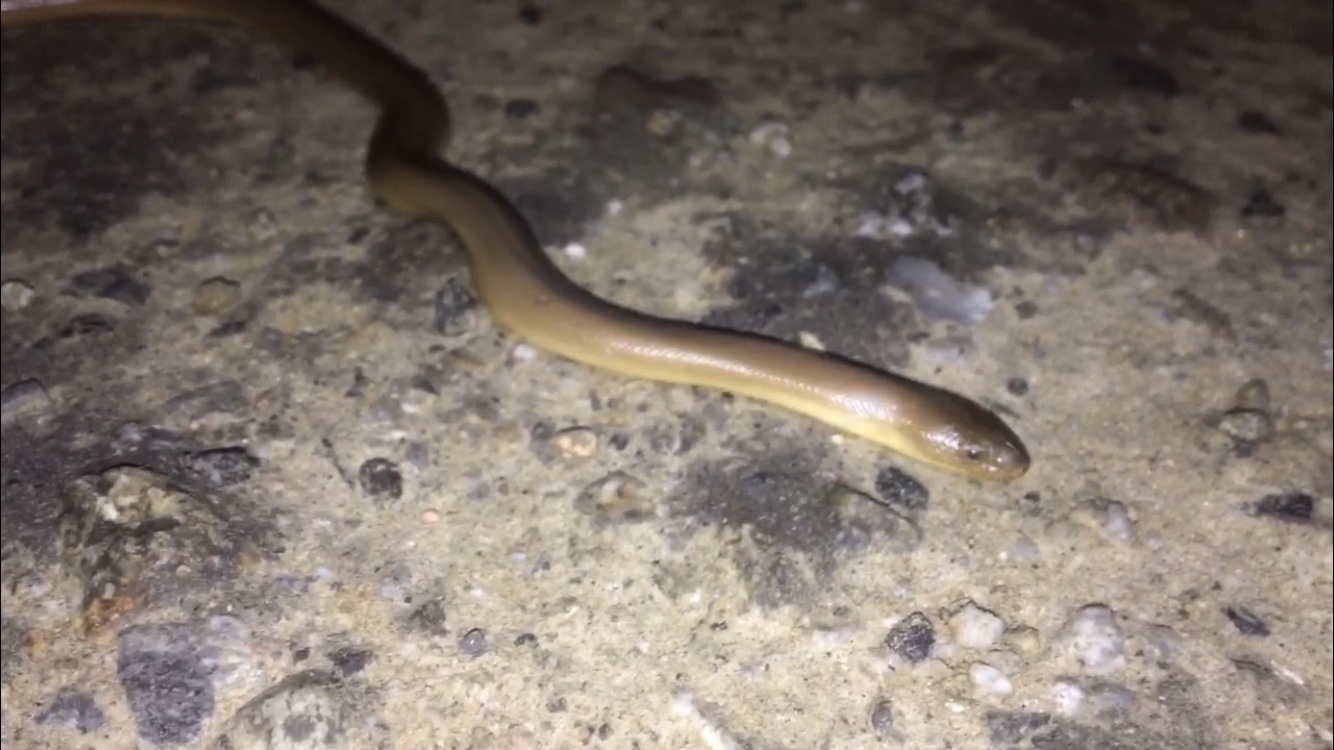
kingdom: Animalia
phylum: Chordata
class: Squamata
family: Boidae
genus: Charina
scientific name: Charina bottae
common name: Northern rubber boa
